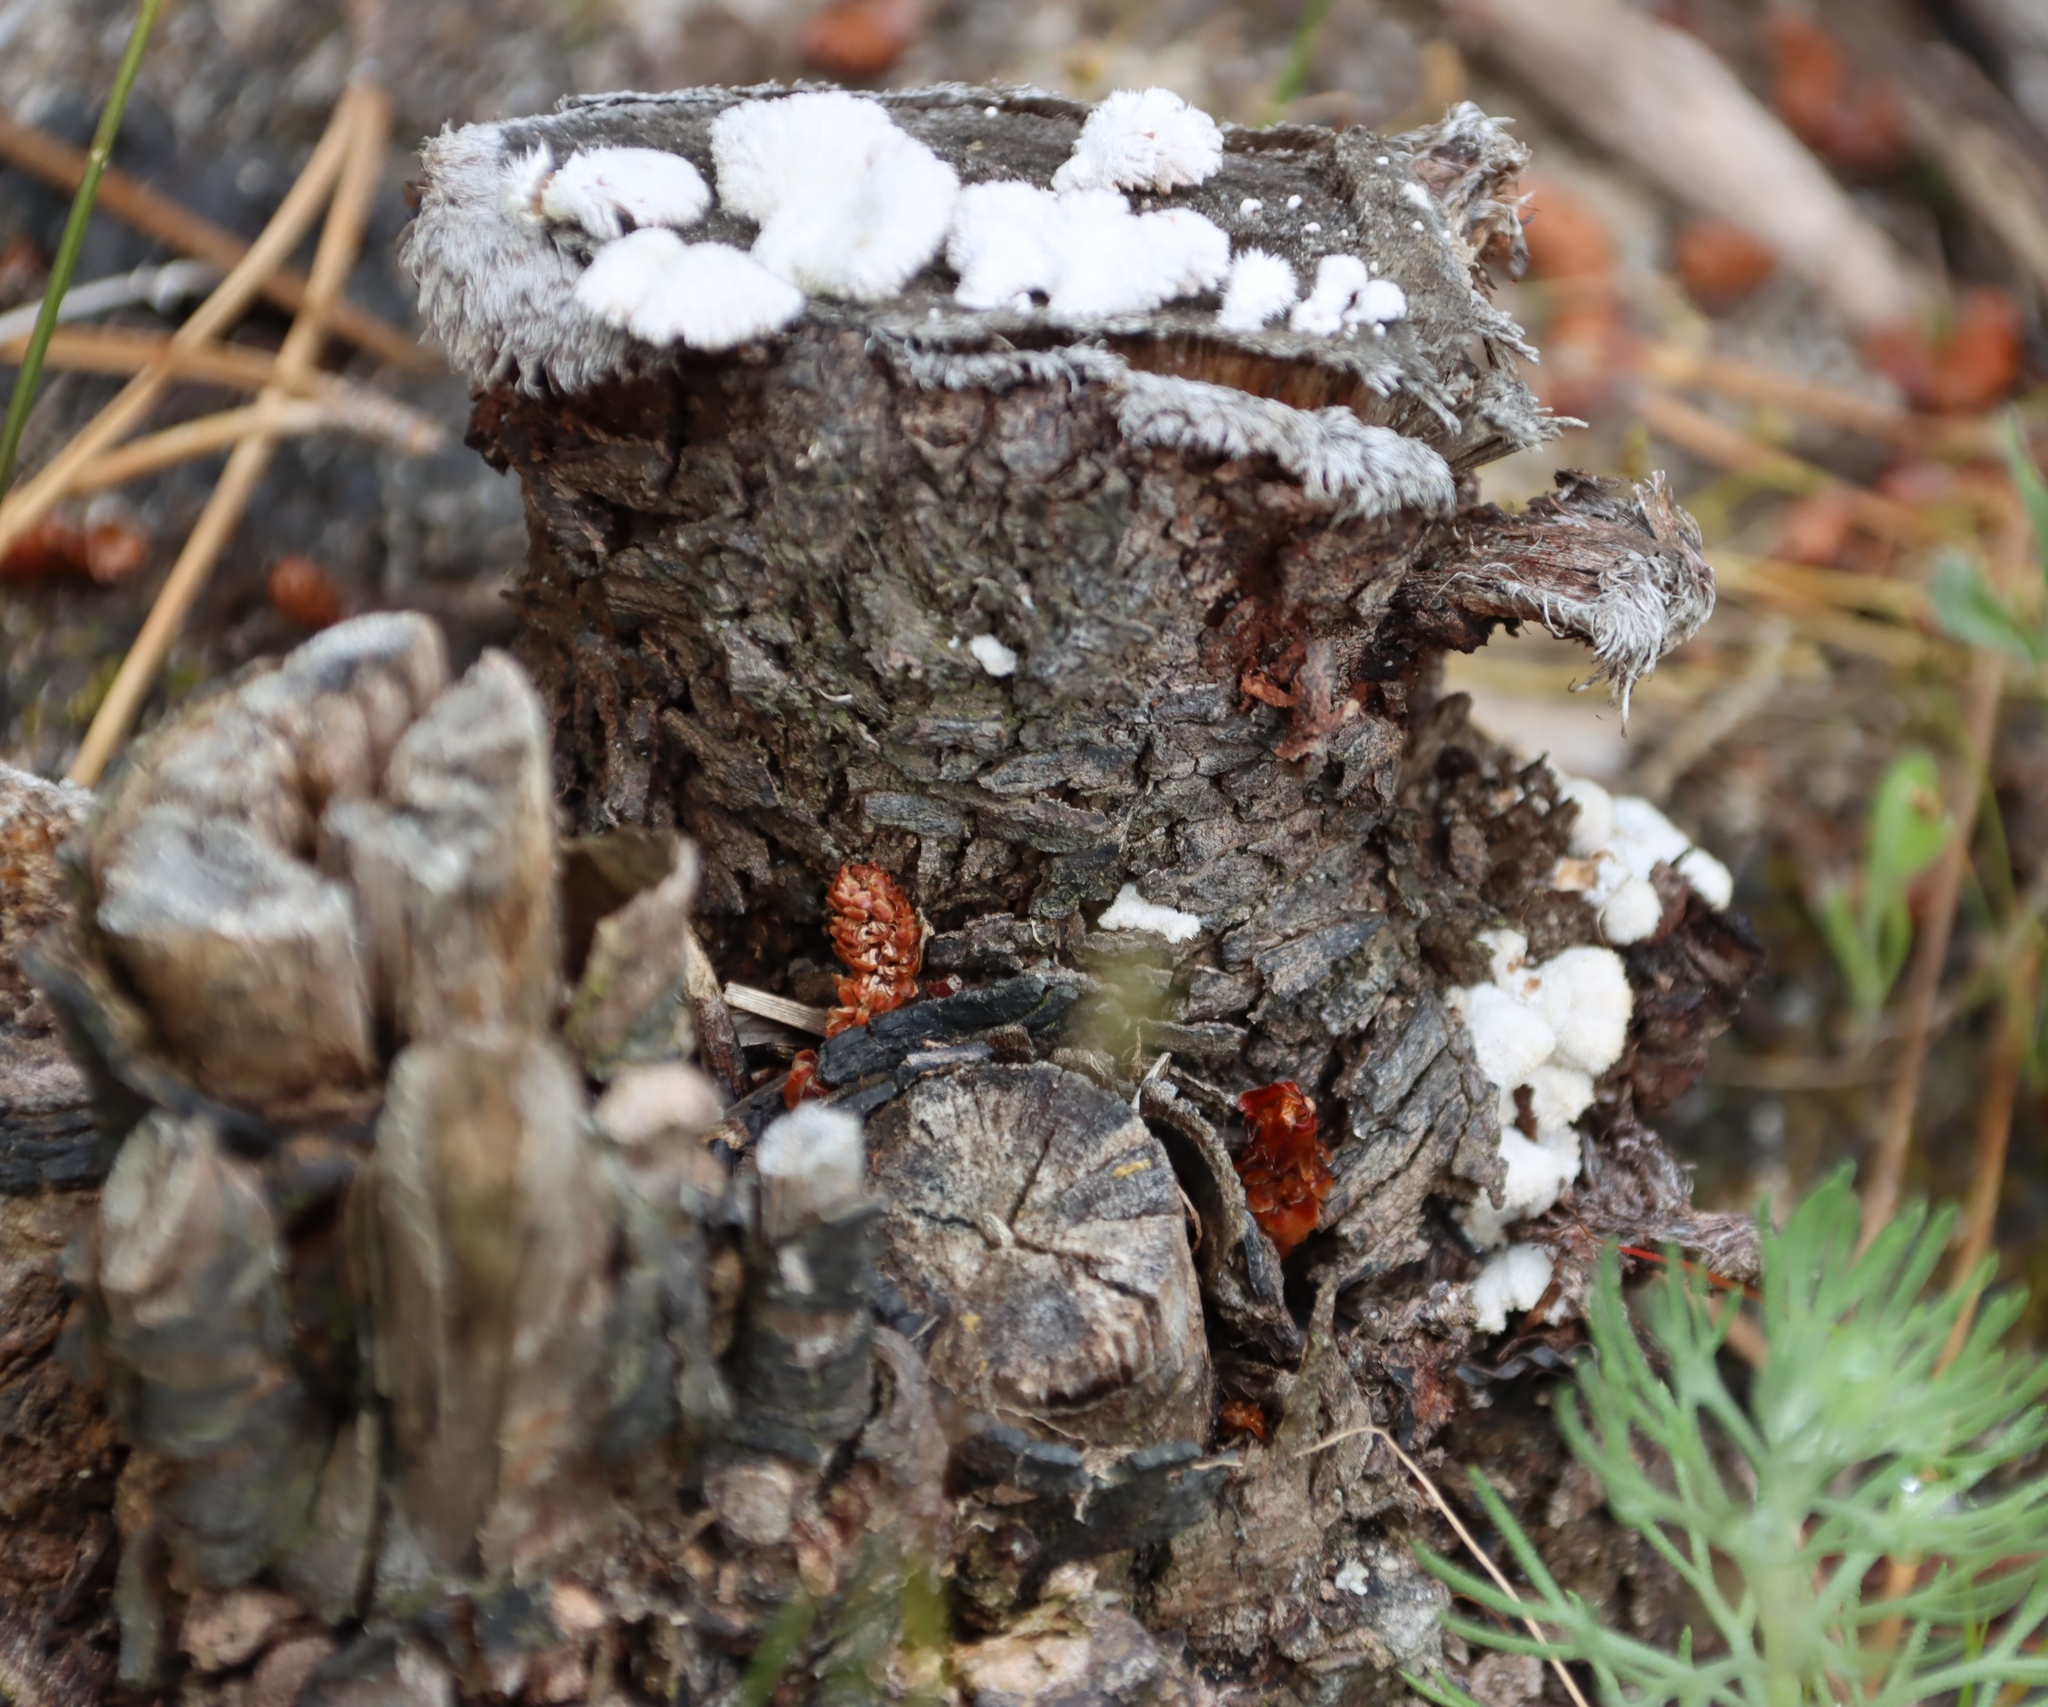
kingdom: Fungi
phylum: Basidiomycota
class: Agaricomycetes
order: Agaricales
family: Schizophyllaceae
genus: Schizophyllum
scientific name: Schizophyllum commune
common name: Common porecrust
